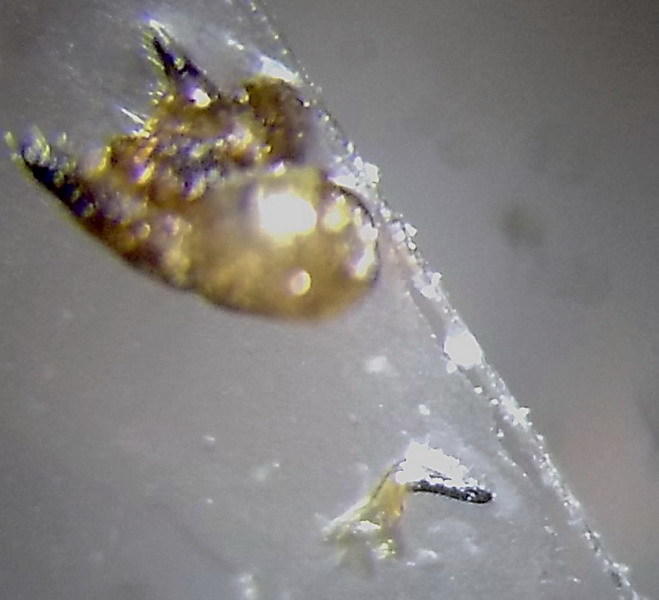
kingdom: Animalia
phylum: Arthropoda
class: Insecta
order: Hemiptera
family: Rhopalidae
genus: Stictopleurus
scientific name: Stictopleurus punctatonervosus
